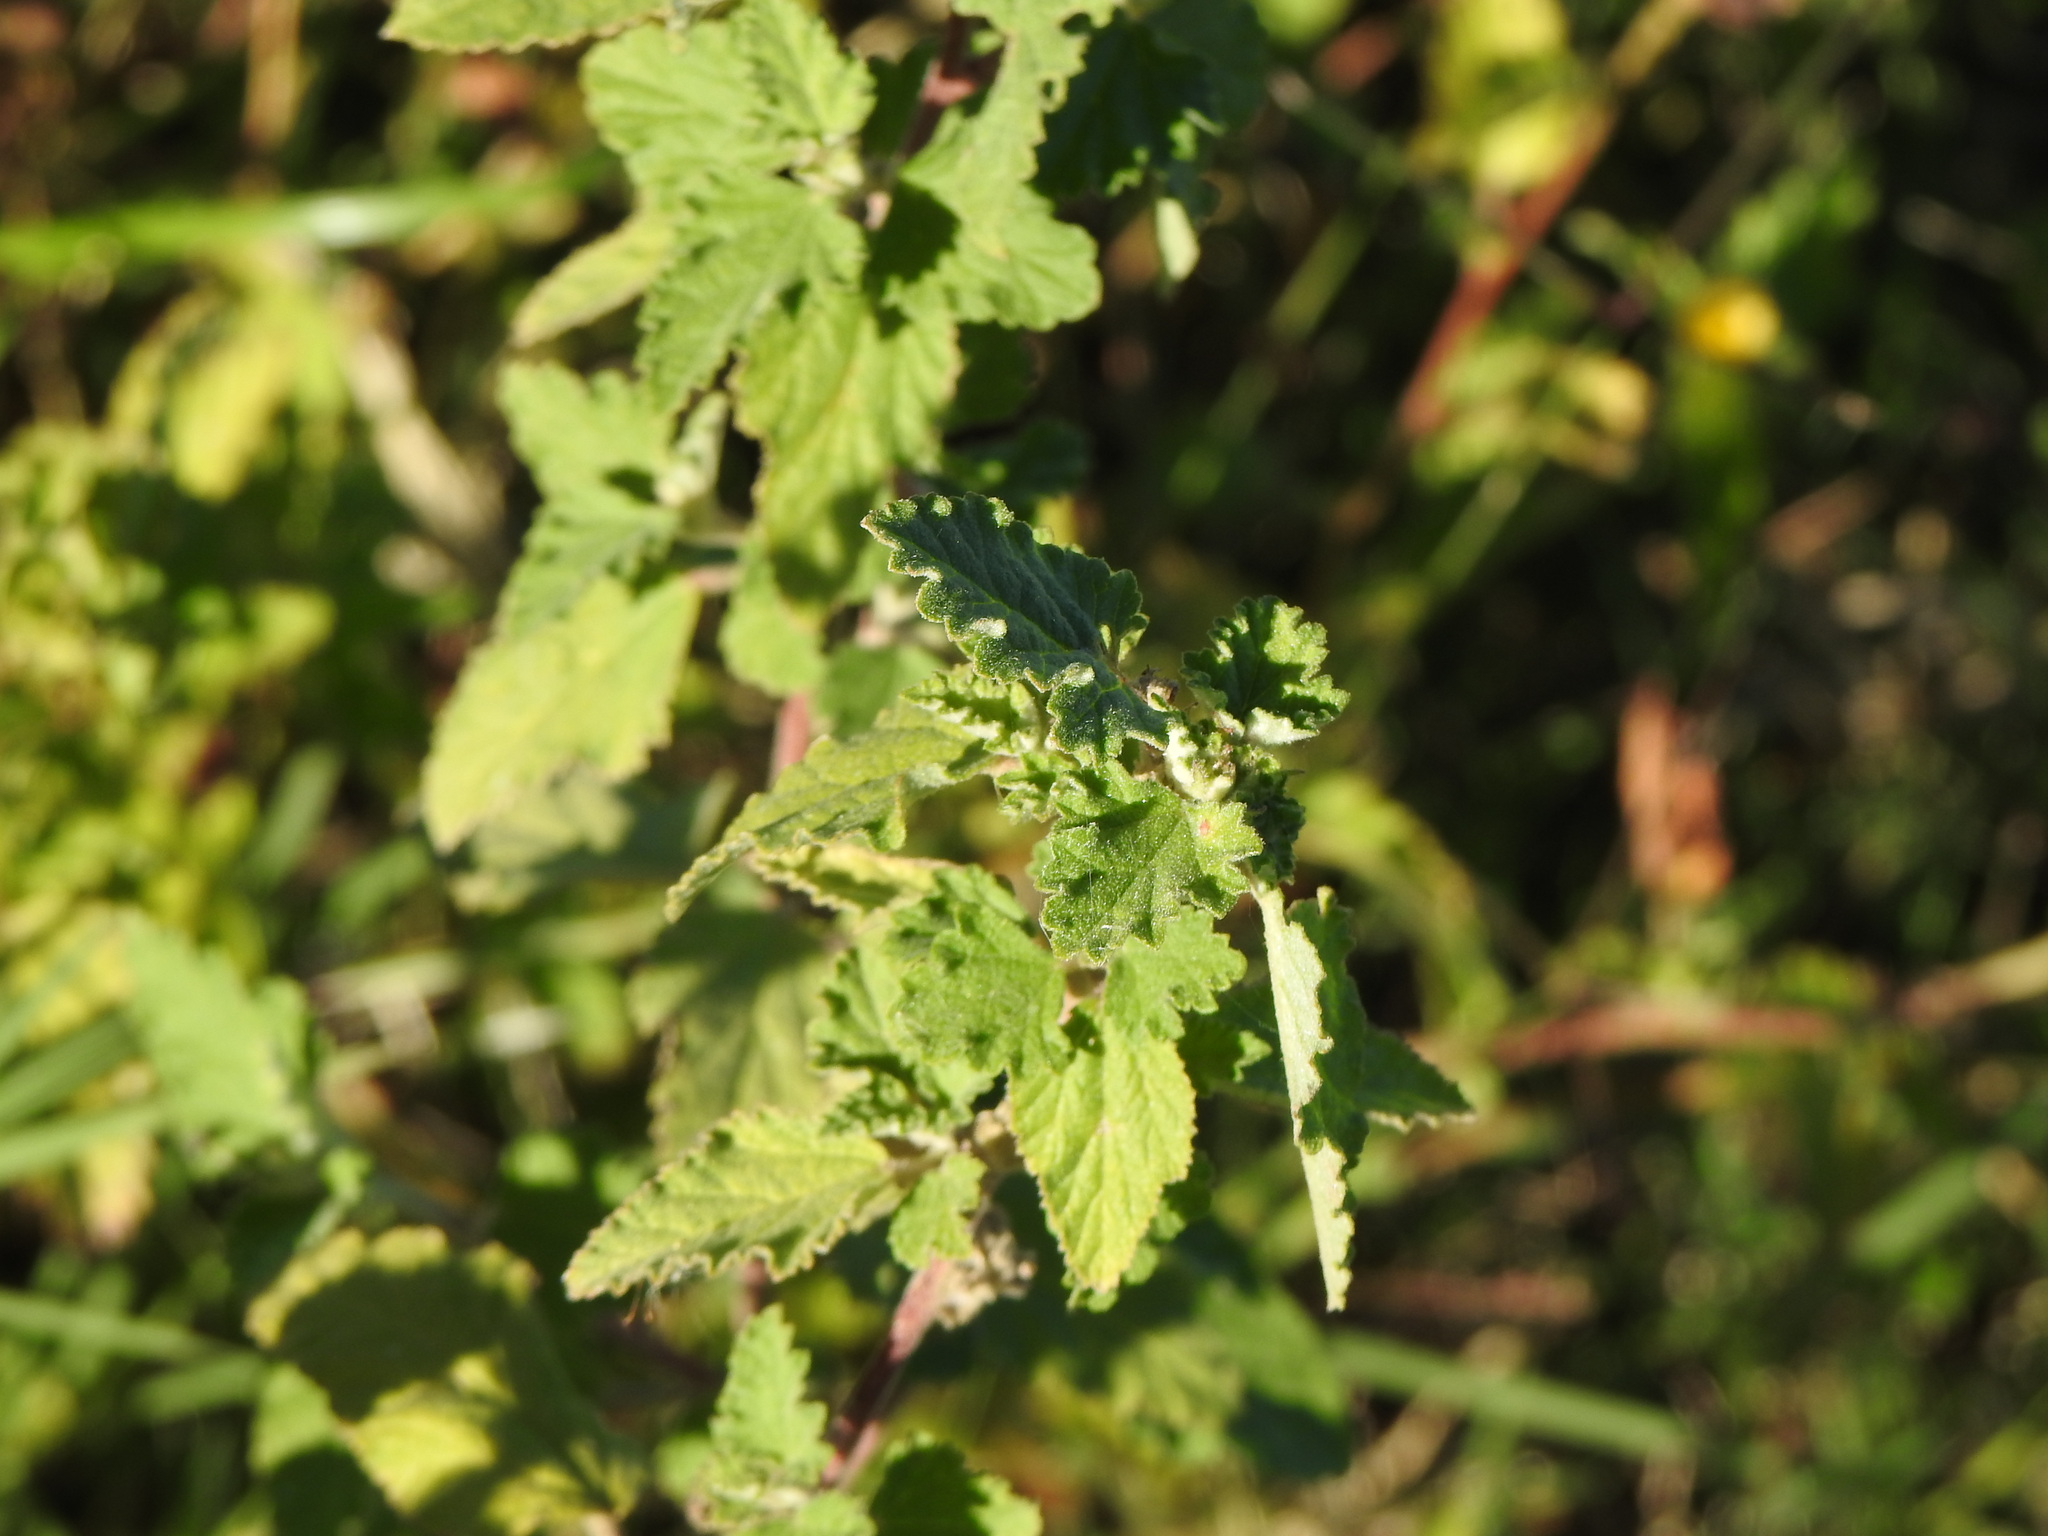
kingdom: Plantae
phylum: Tracheophyta
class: Magnoliopsida
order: Malvales
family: Malvaceae
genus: Sphaeralcea
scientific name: Sphaeralcea bonariensis
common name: Latin globemallow
